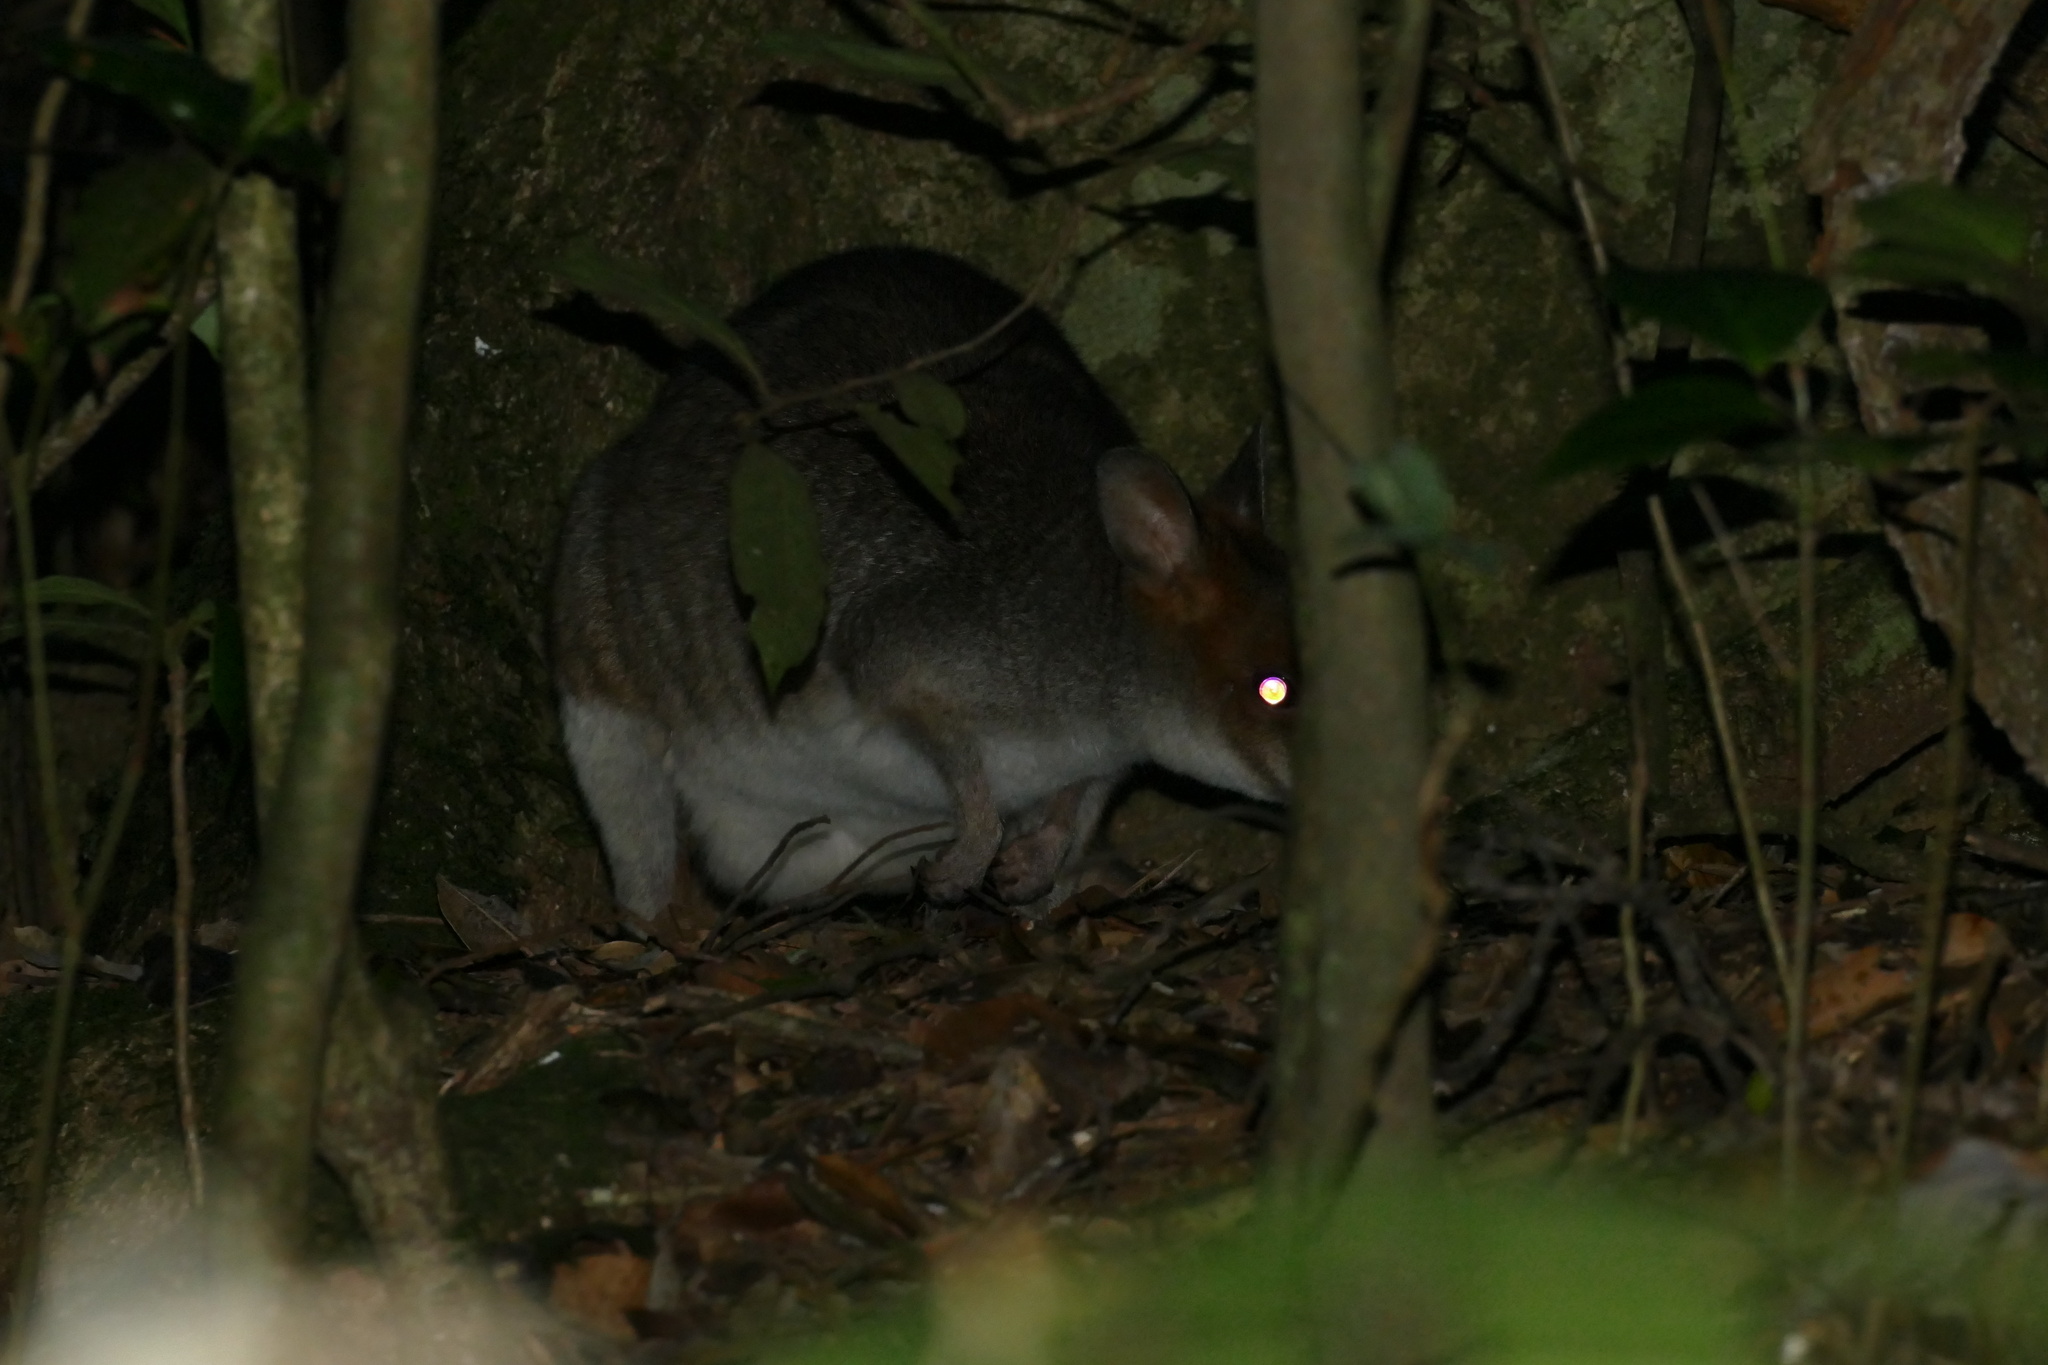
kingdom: Animalia
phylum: Chordata
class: Mammalia
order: Diprotodontia
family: Macropodidae
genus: Thylogale
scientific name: Thylogale stigmatica
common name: Red-legged pademelon
